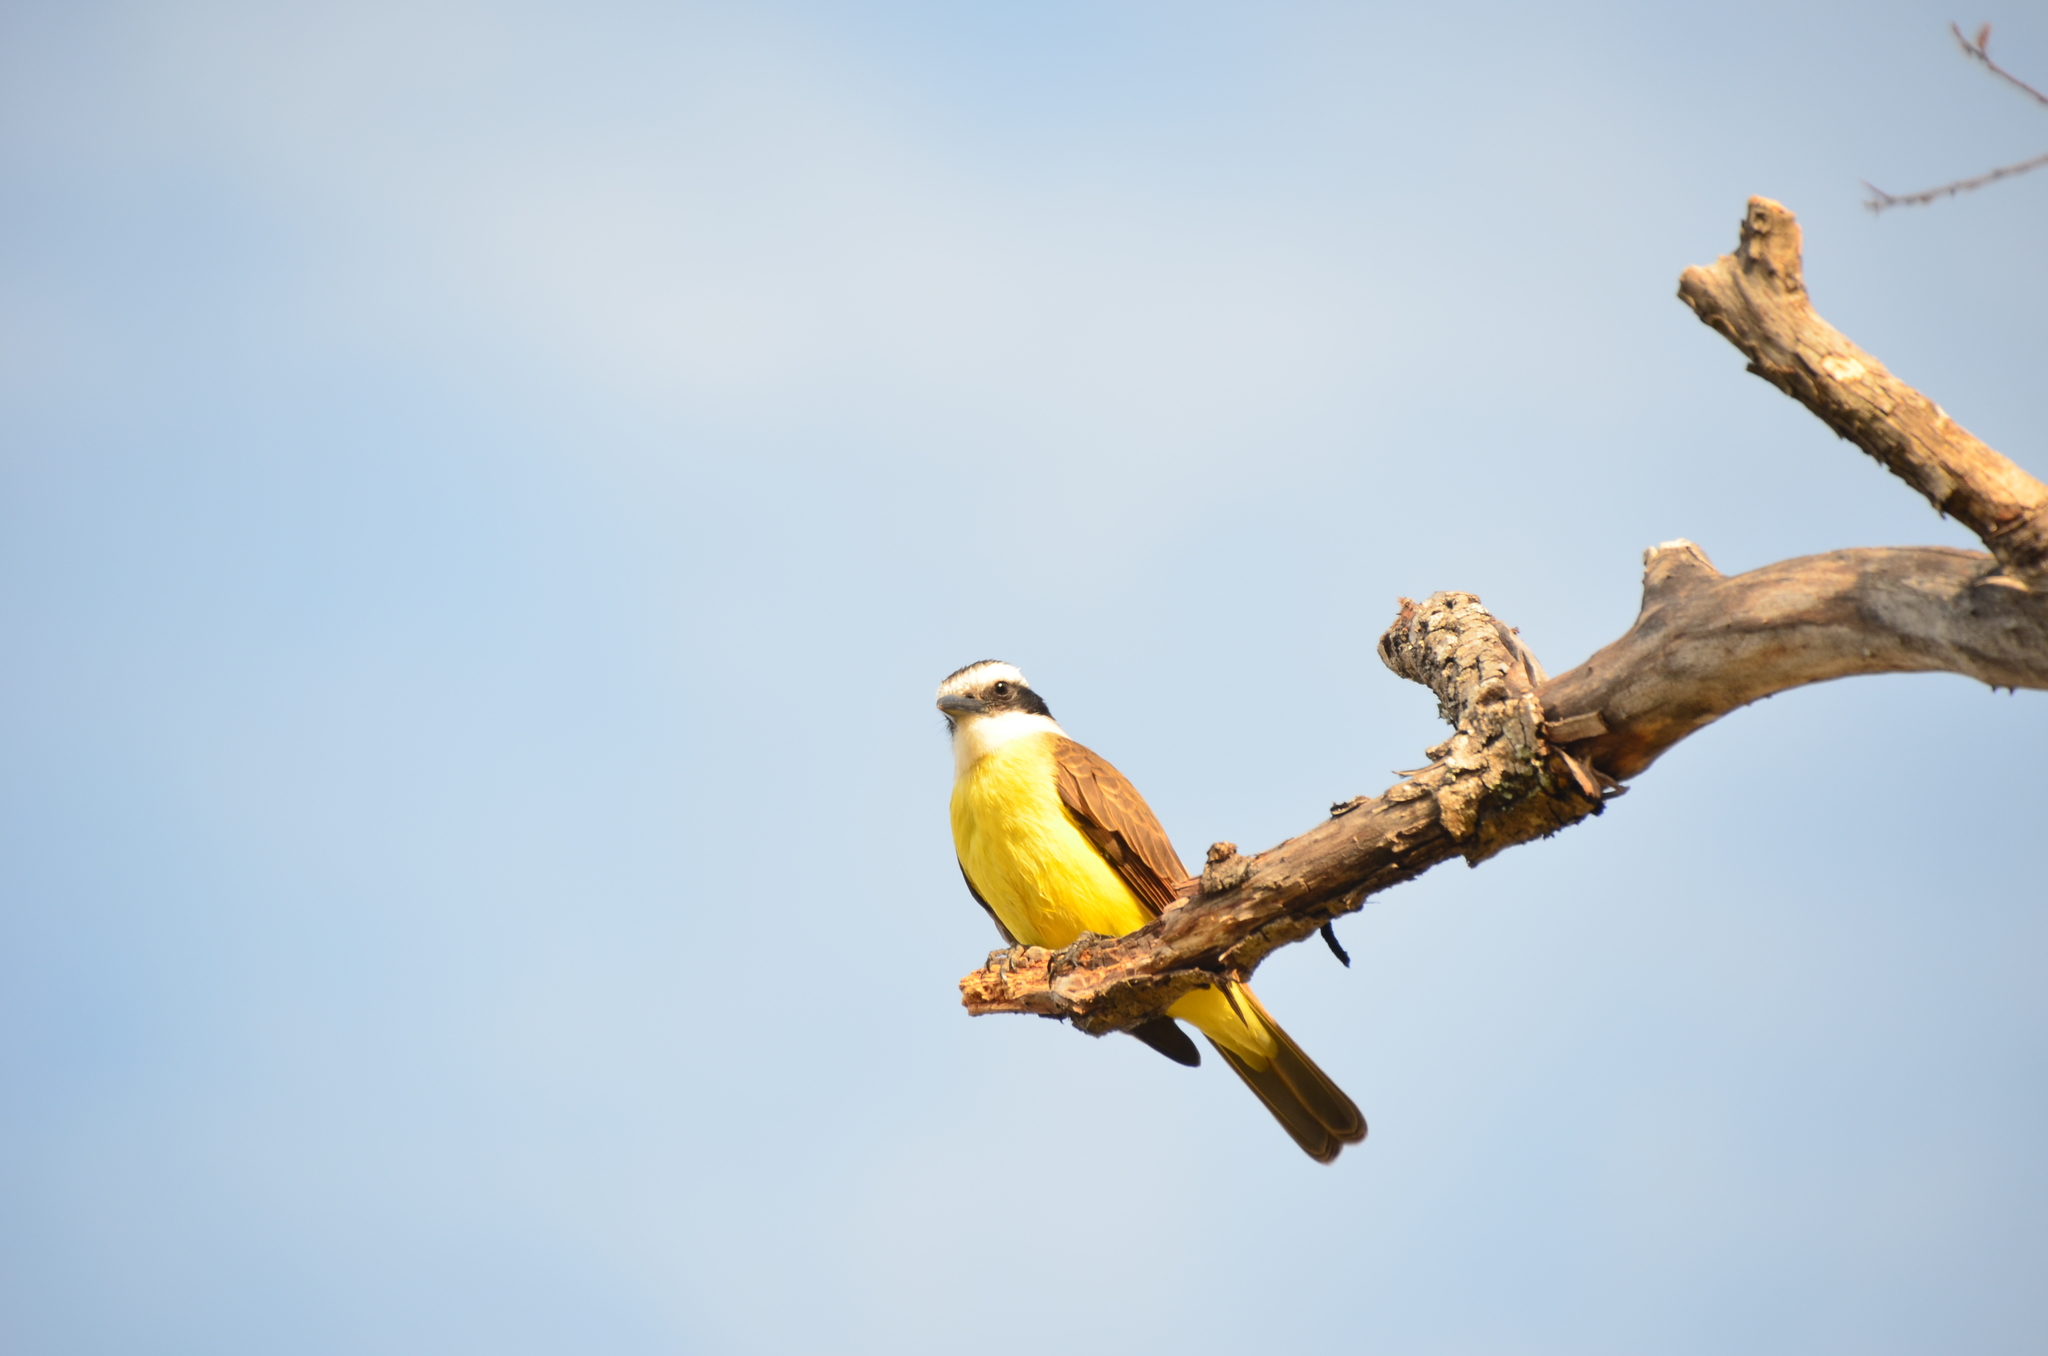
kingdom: Animalia
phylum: Chordata
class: Aves
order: Passeriformes
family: Tyrannidae
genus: Pitangus
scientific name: Pitangus sulphuratus
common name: Great kiskadee
